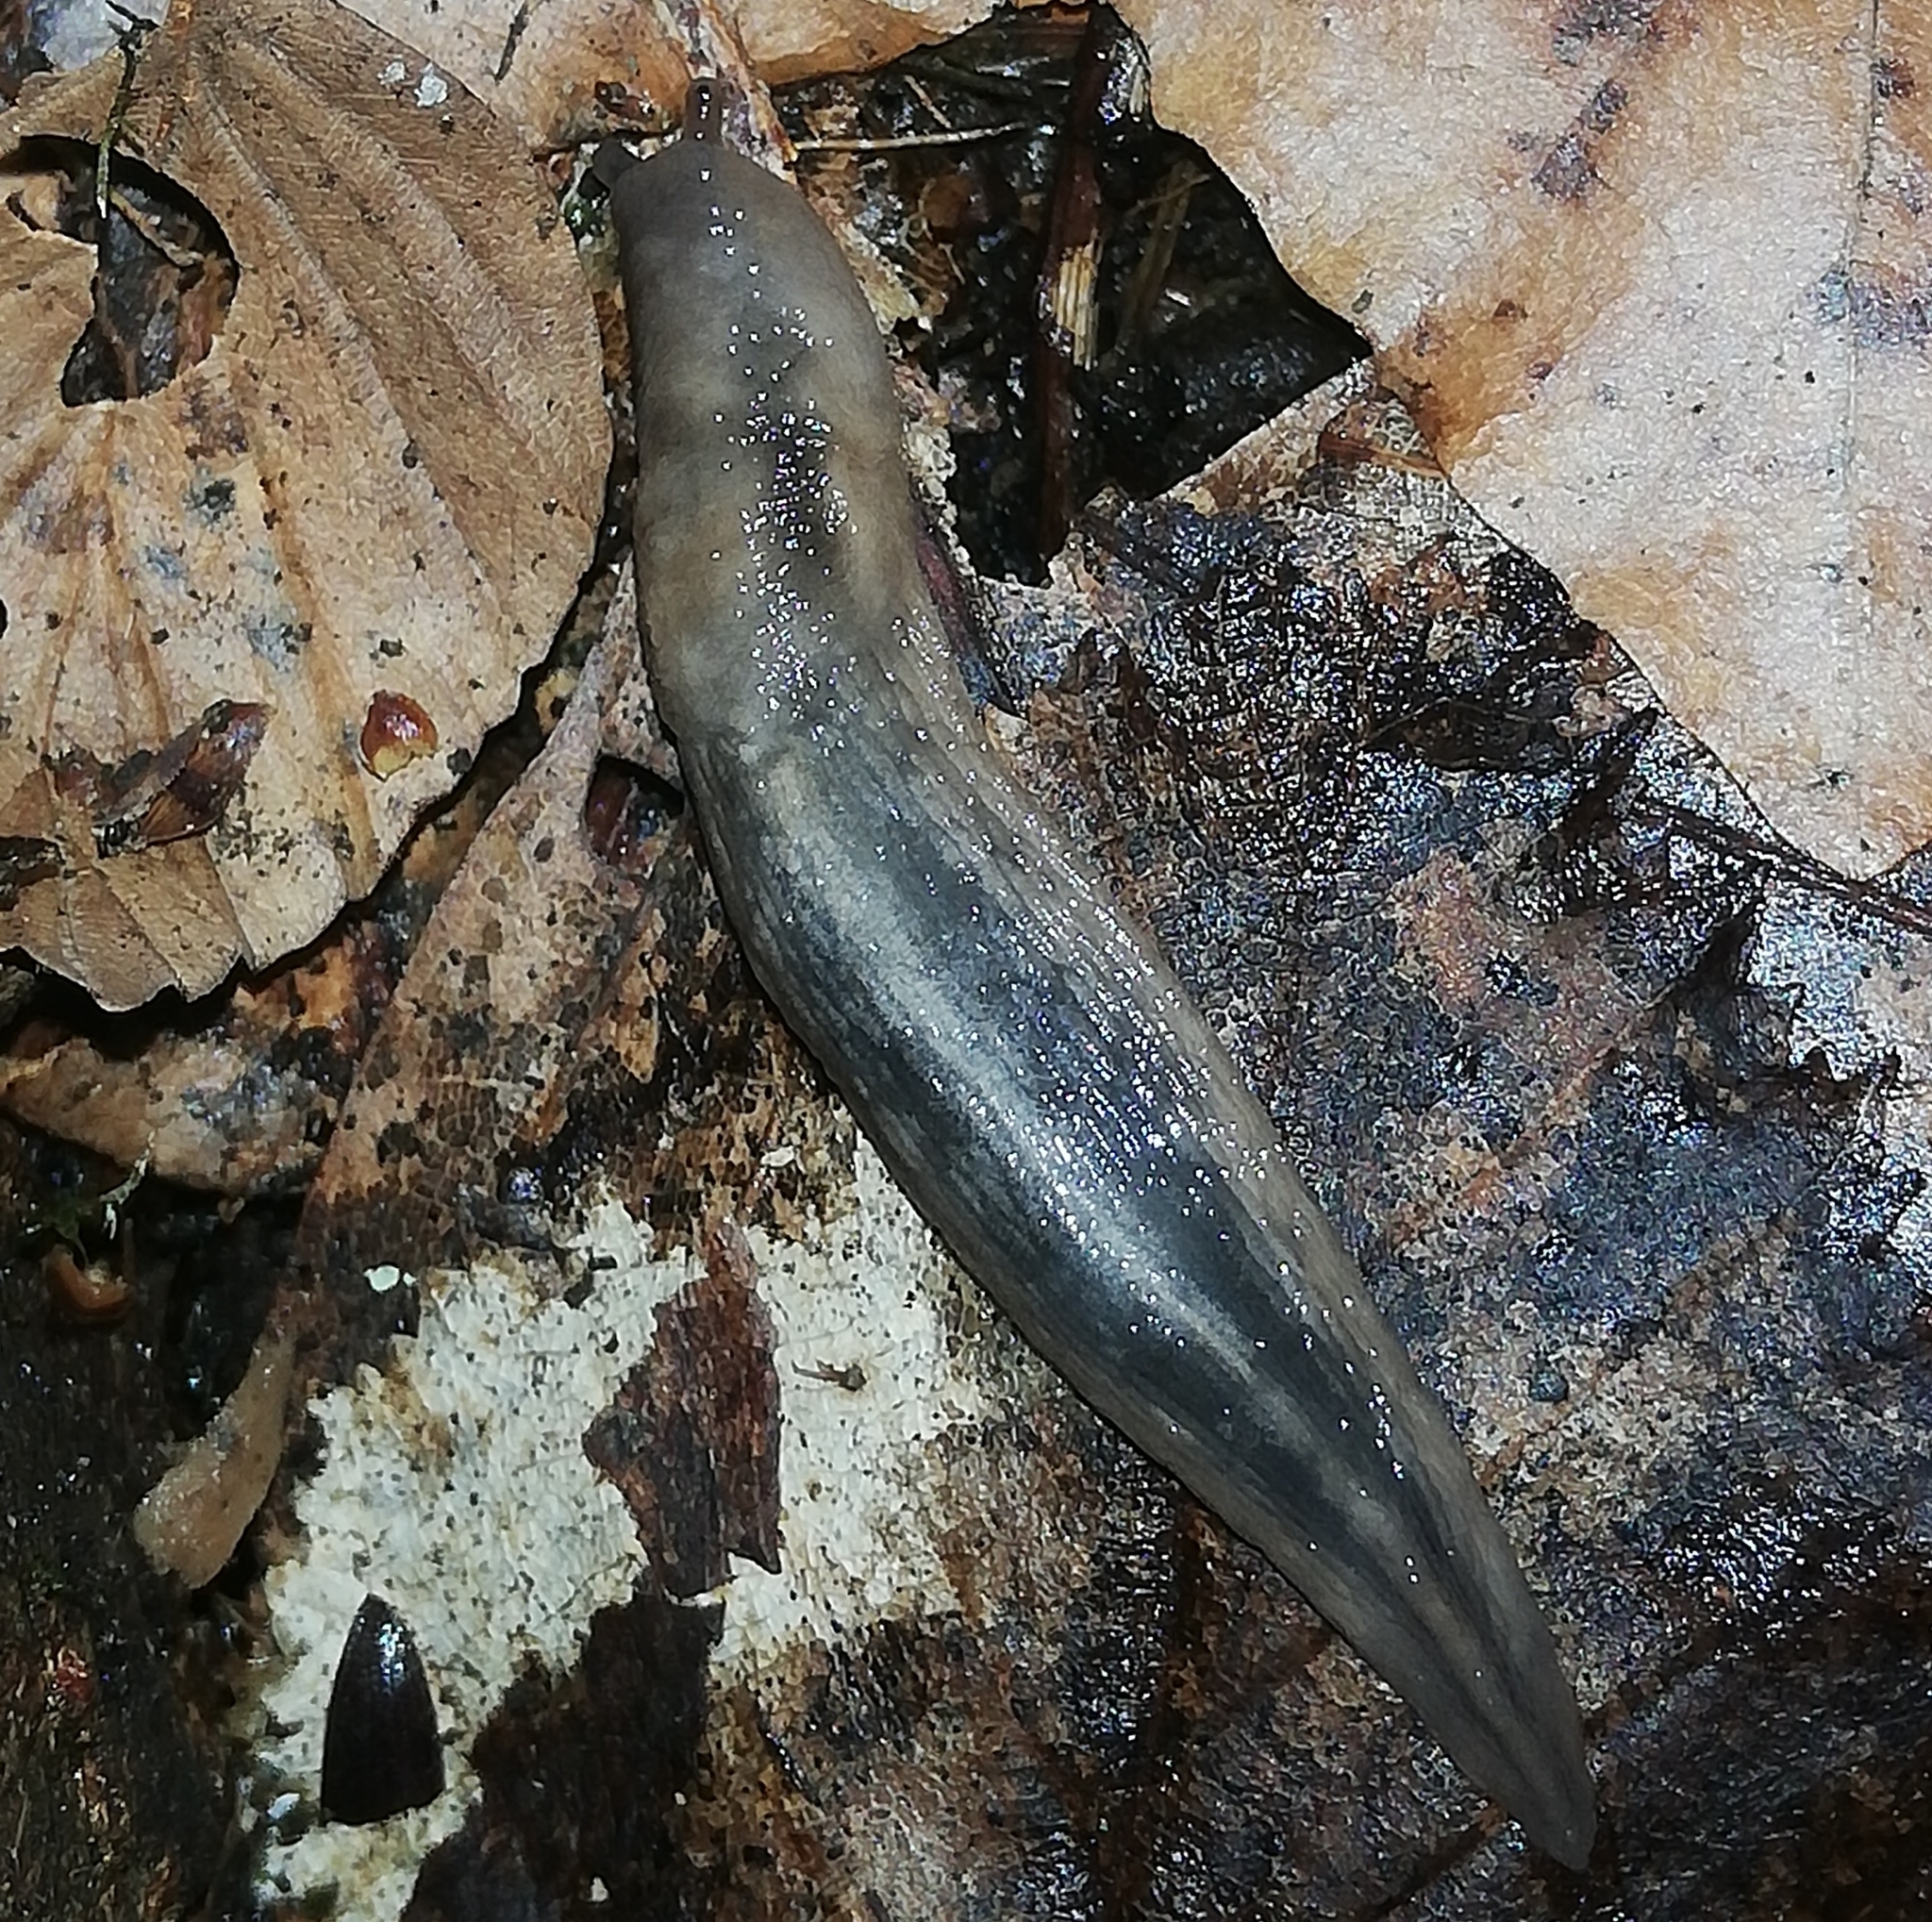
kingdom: Animalia
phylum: Mollusca
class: Gastropoda
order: Stylommatophora
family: Limacidae
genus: Lehmannia
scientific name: Lehmannia marginata
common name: Tree slug
